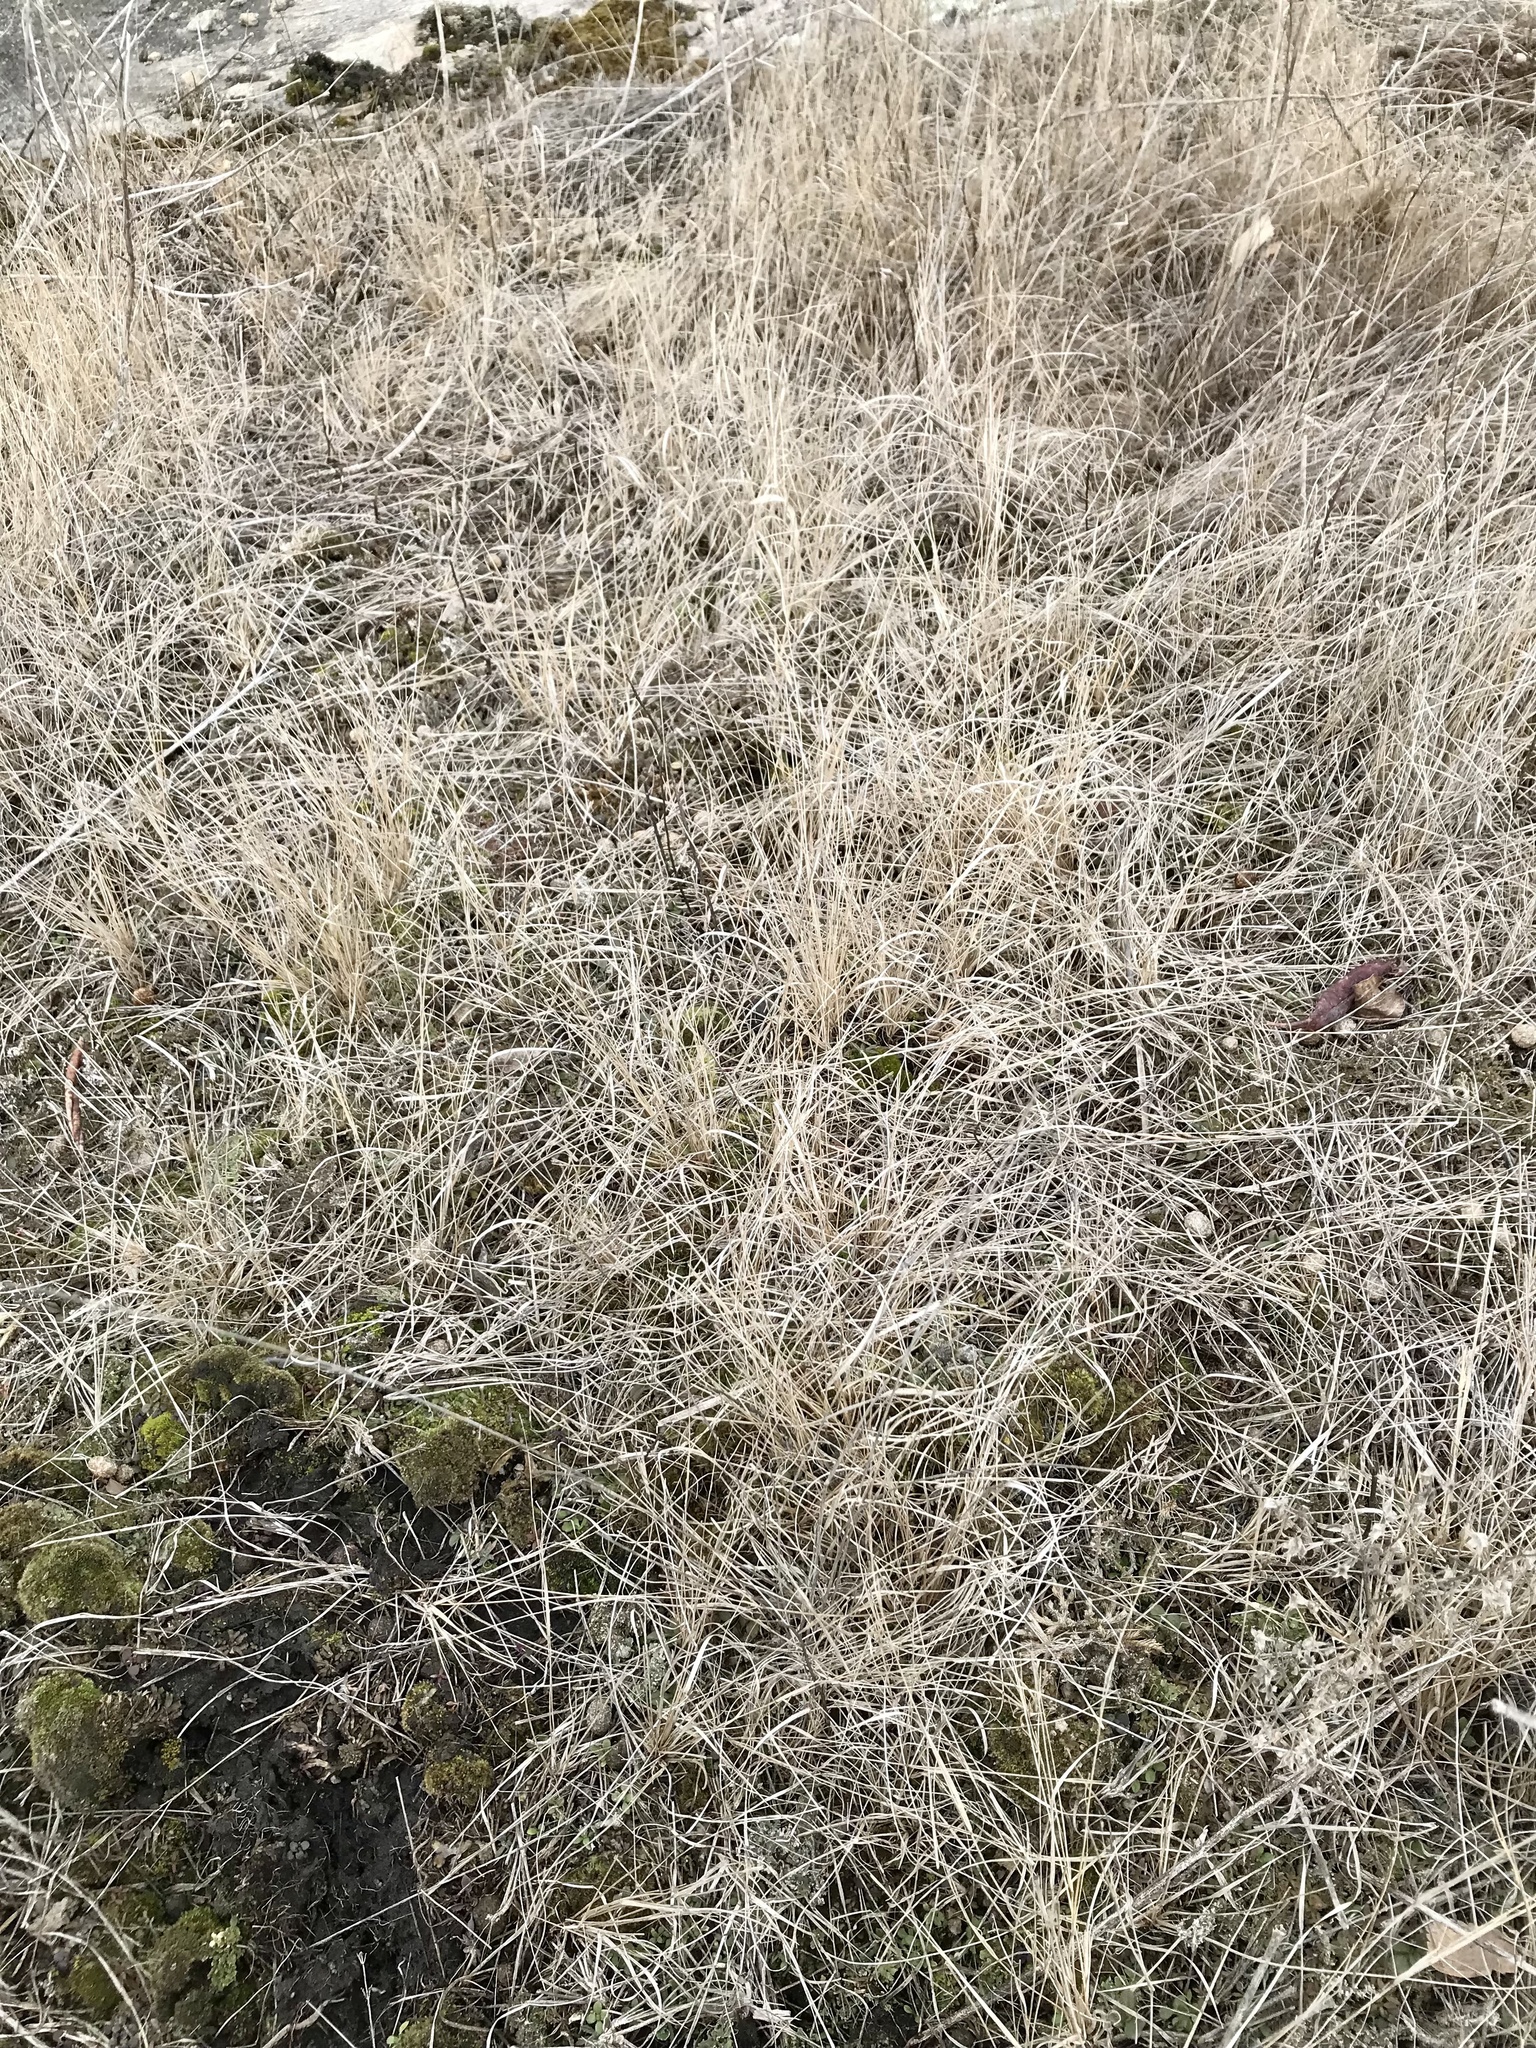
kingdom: Plantae
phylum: Tracheophyta
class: Liliopsida
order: Poales
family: Poaceae
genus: Aristida
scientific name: Aristida dichotoma
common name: Churchmouse three-awn
